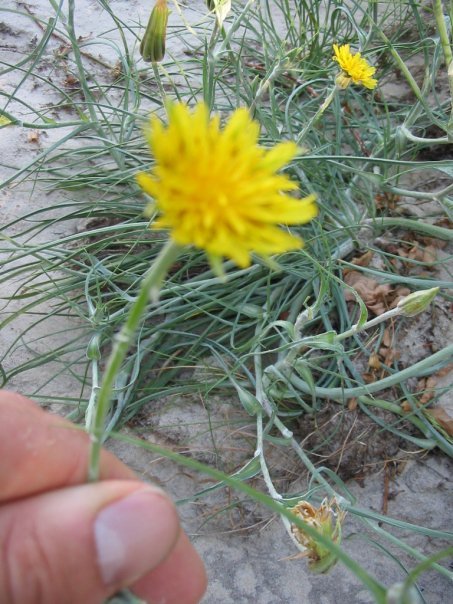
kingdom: Plantae
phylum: Tracheophyta
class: Magnoliopsida
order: Asterales
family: Asteraceae
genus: Tragopogon
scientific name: Tragopogon heterospermus
